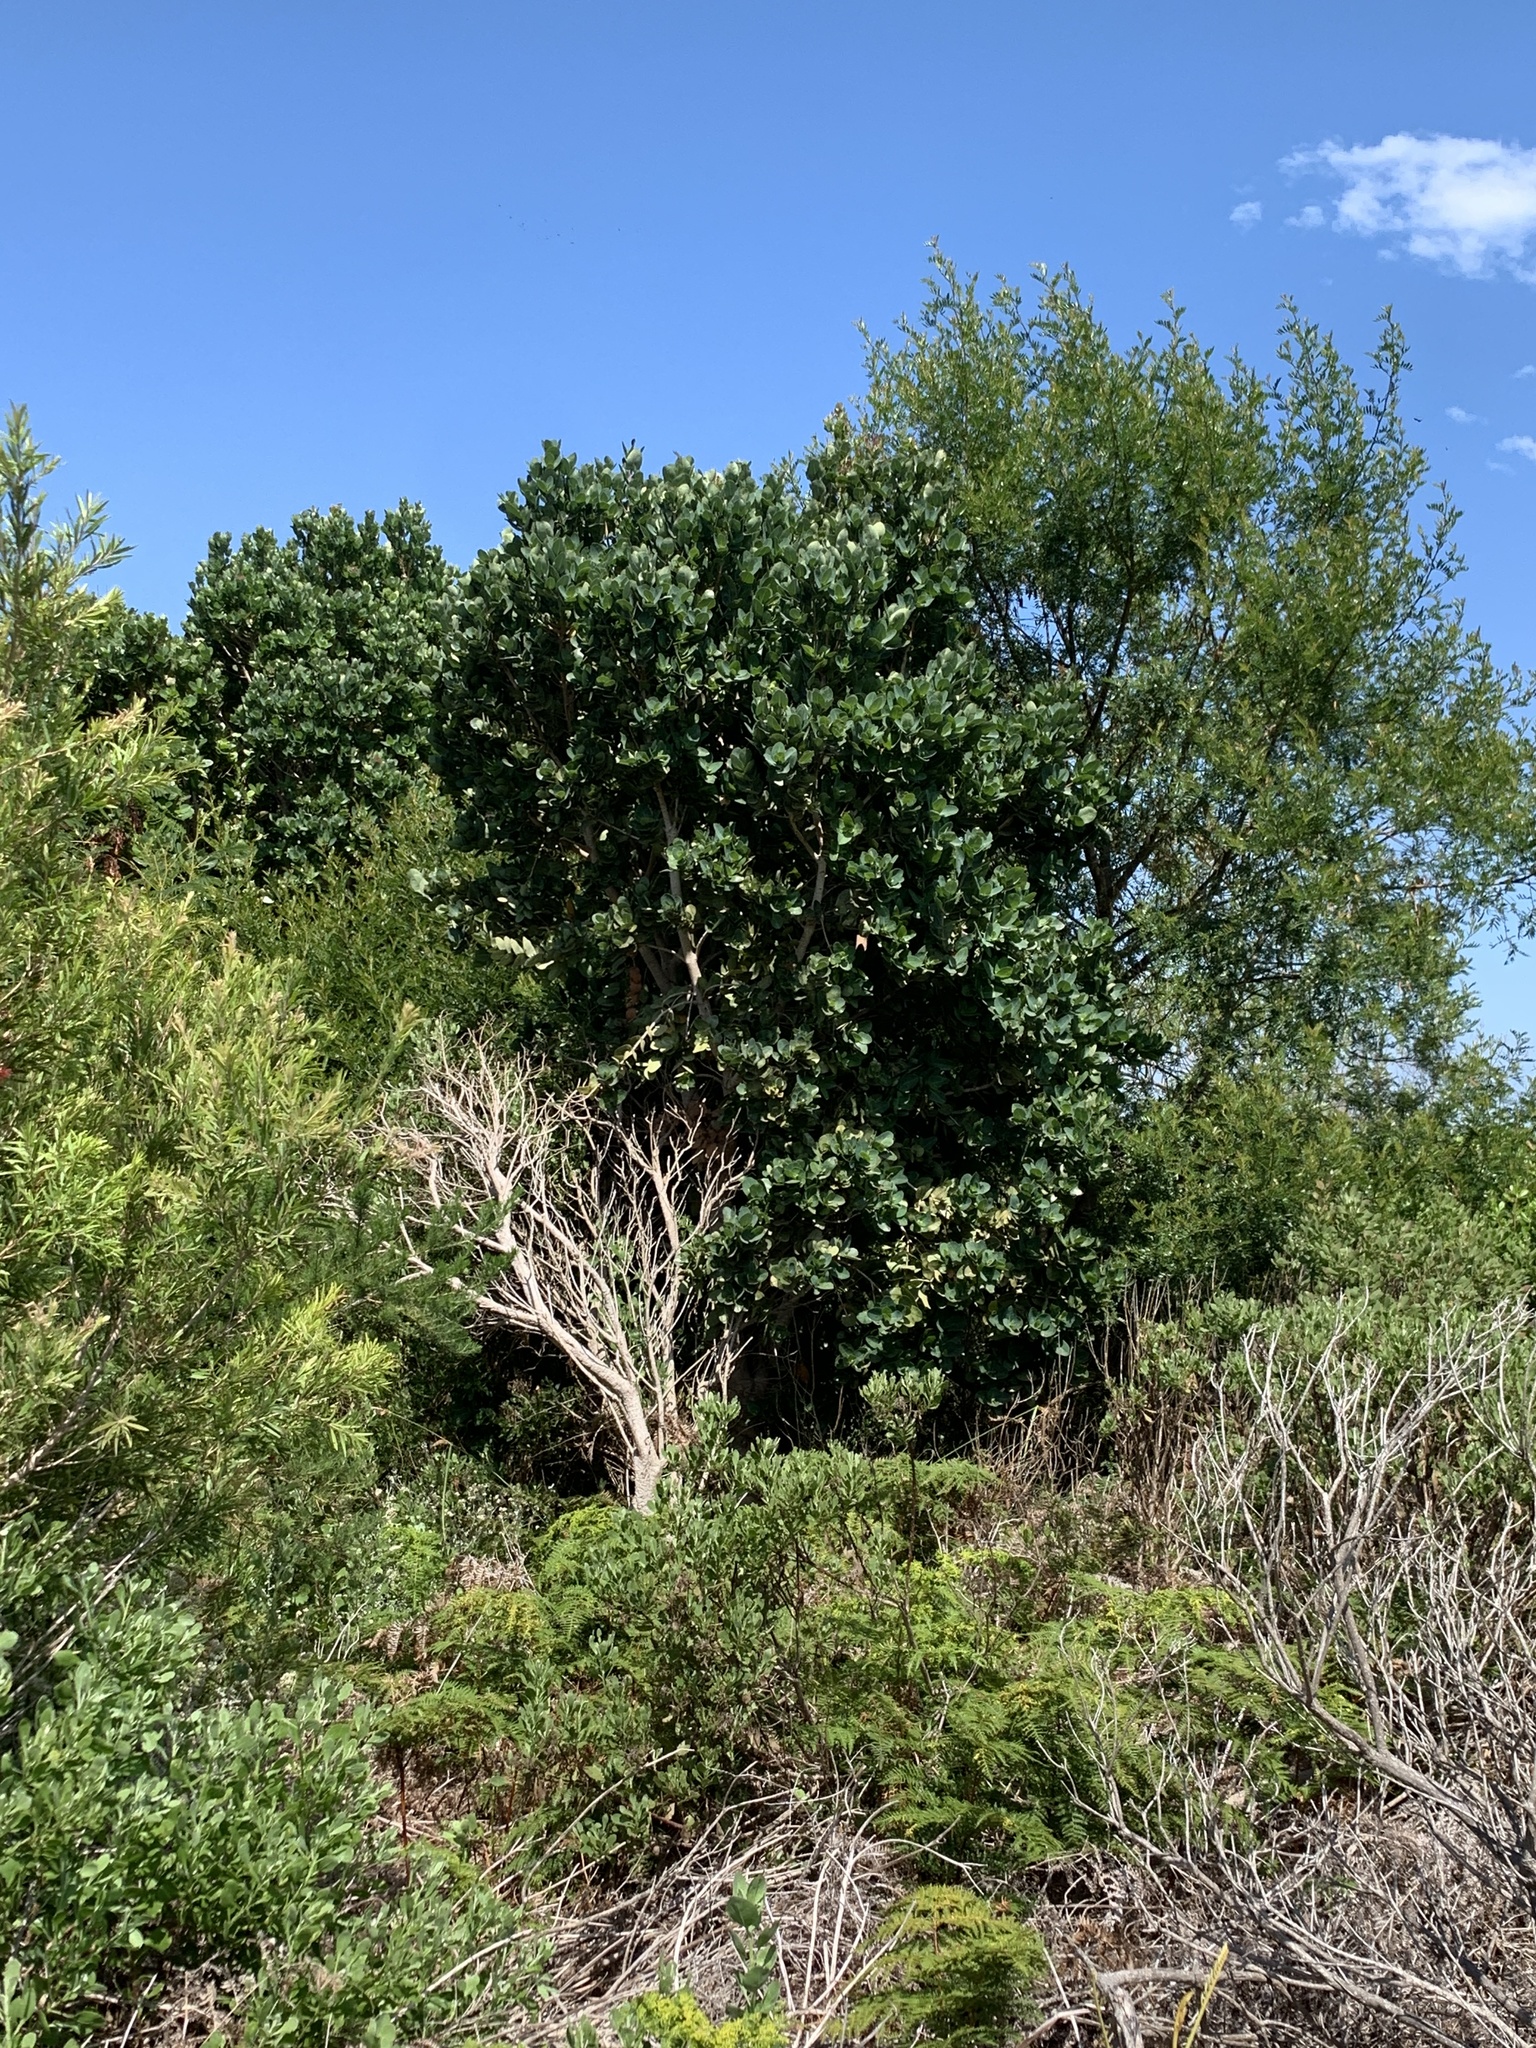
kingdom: Plantae
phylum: Tracheophyta
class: Magnoliopsida
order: Myrtales
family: Myrtaceae
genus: Syzygium
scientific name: Syzygium cordatum
